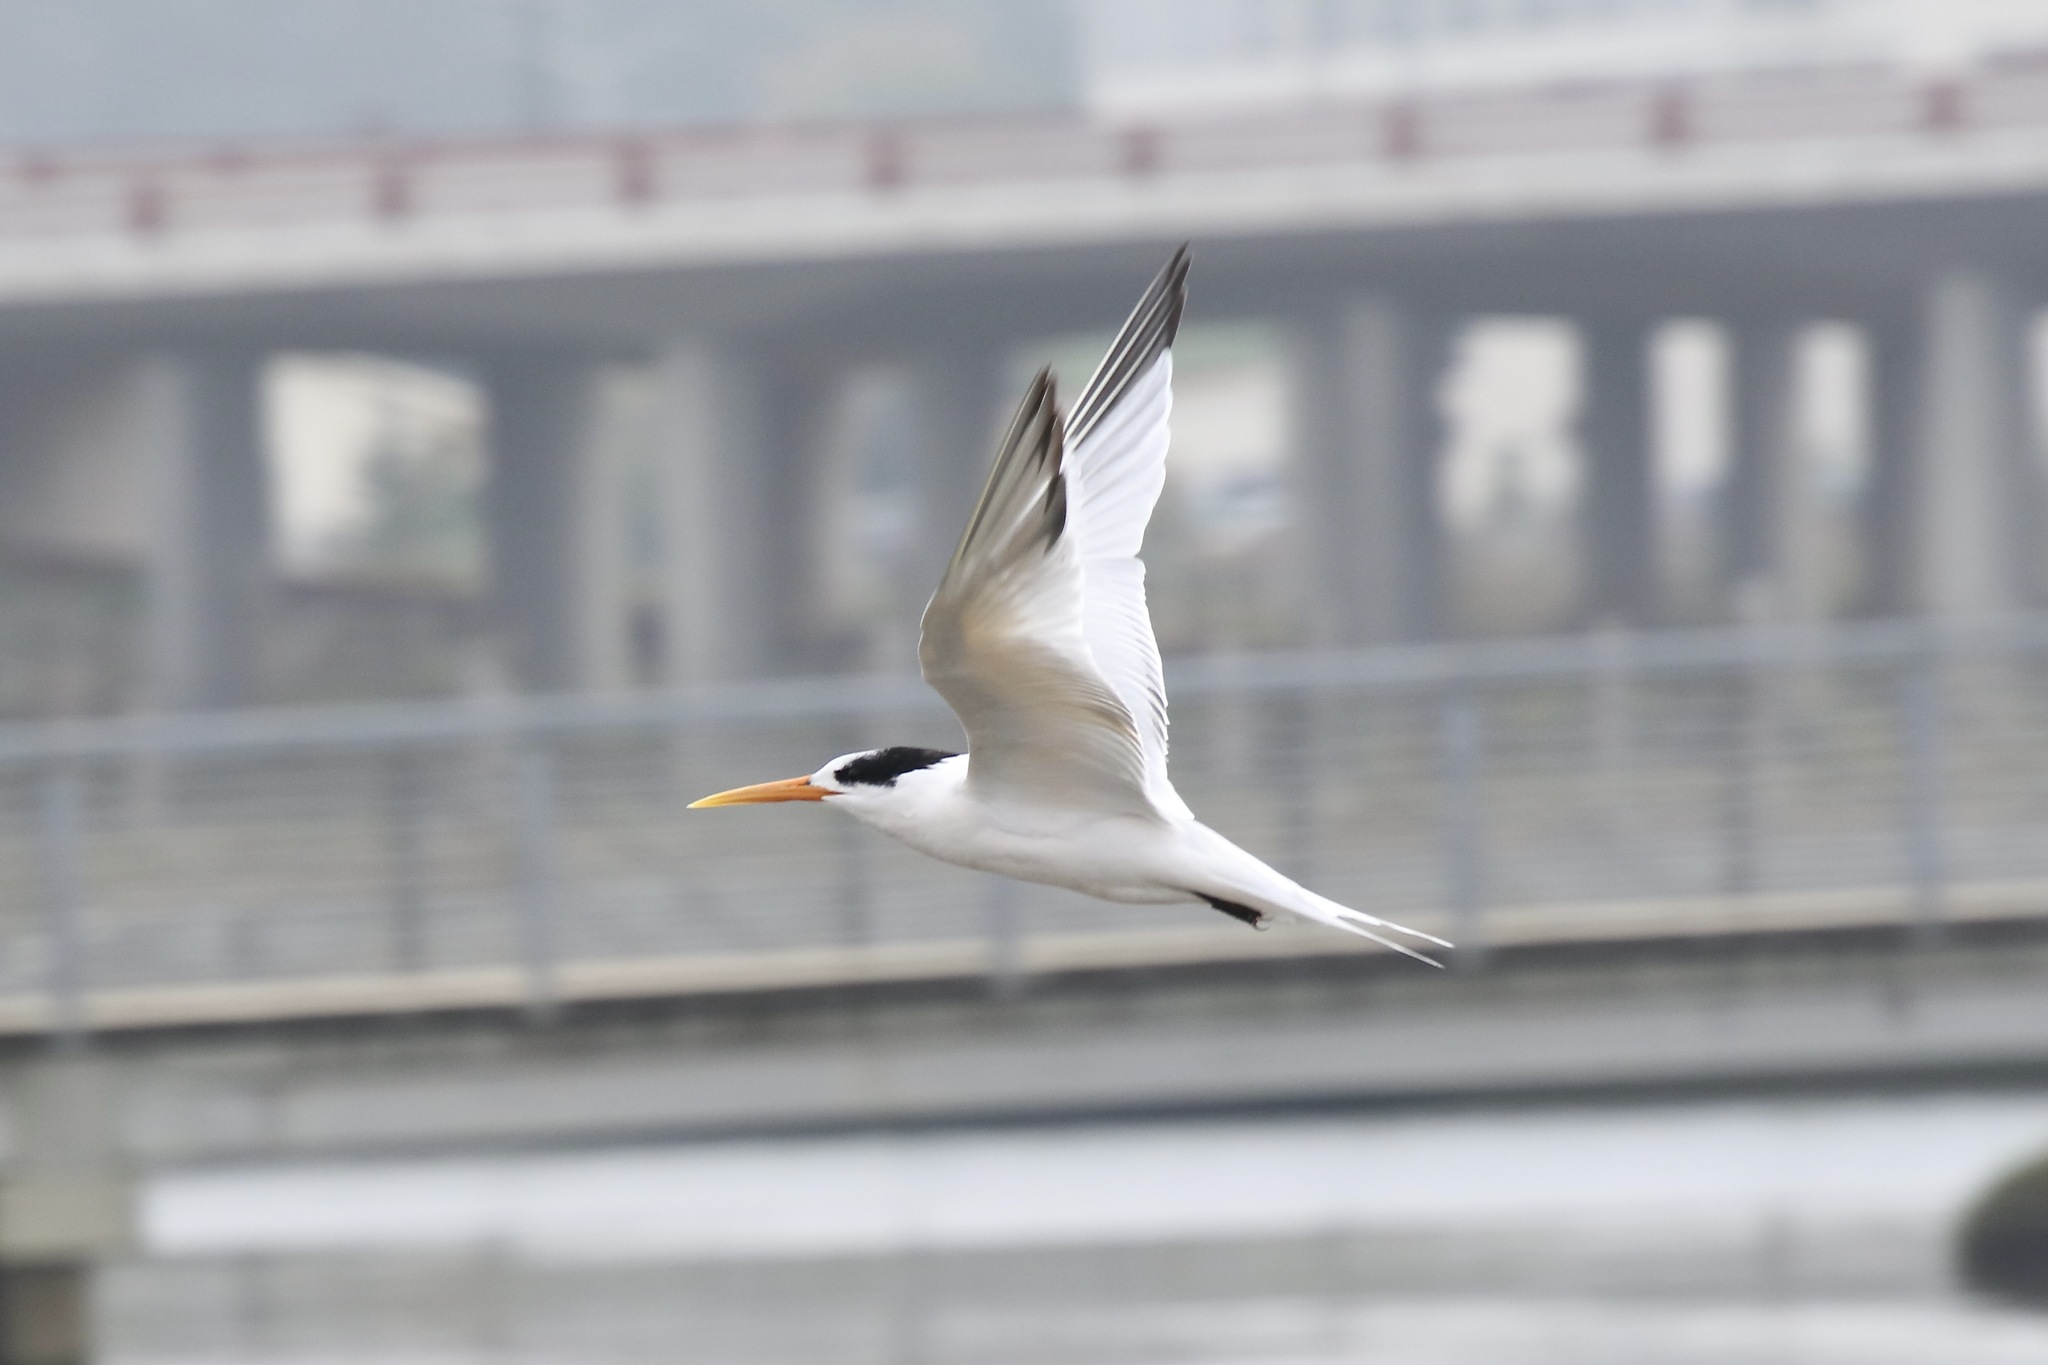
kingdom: Animalia
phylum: Chordata
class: Aves
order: Charadriiformes
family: Laridae
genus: Thalasseus
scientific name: Thalasseus elegans
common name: Elegant tern
